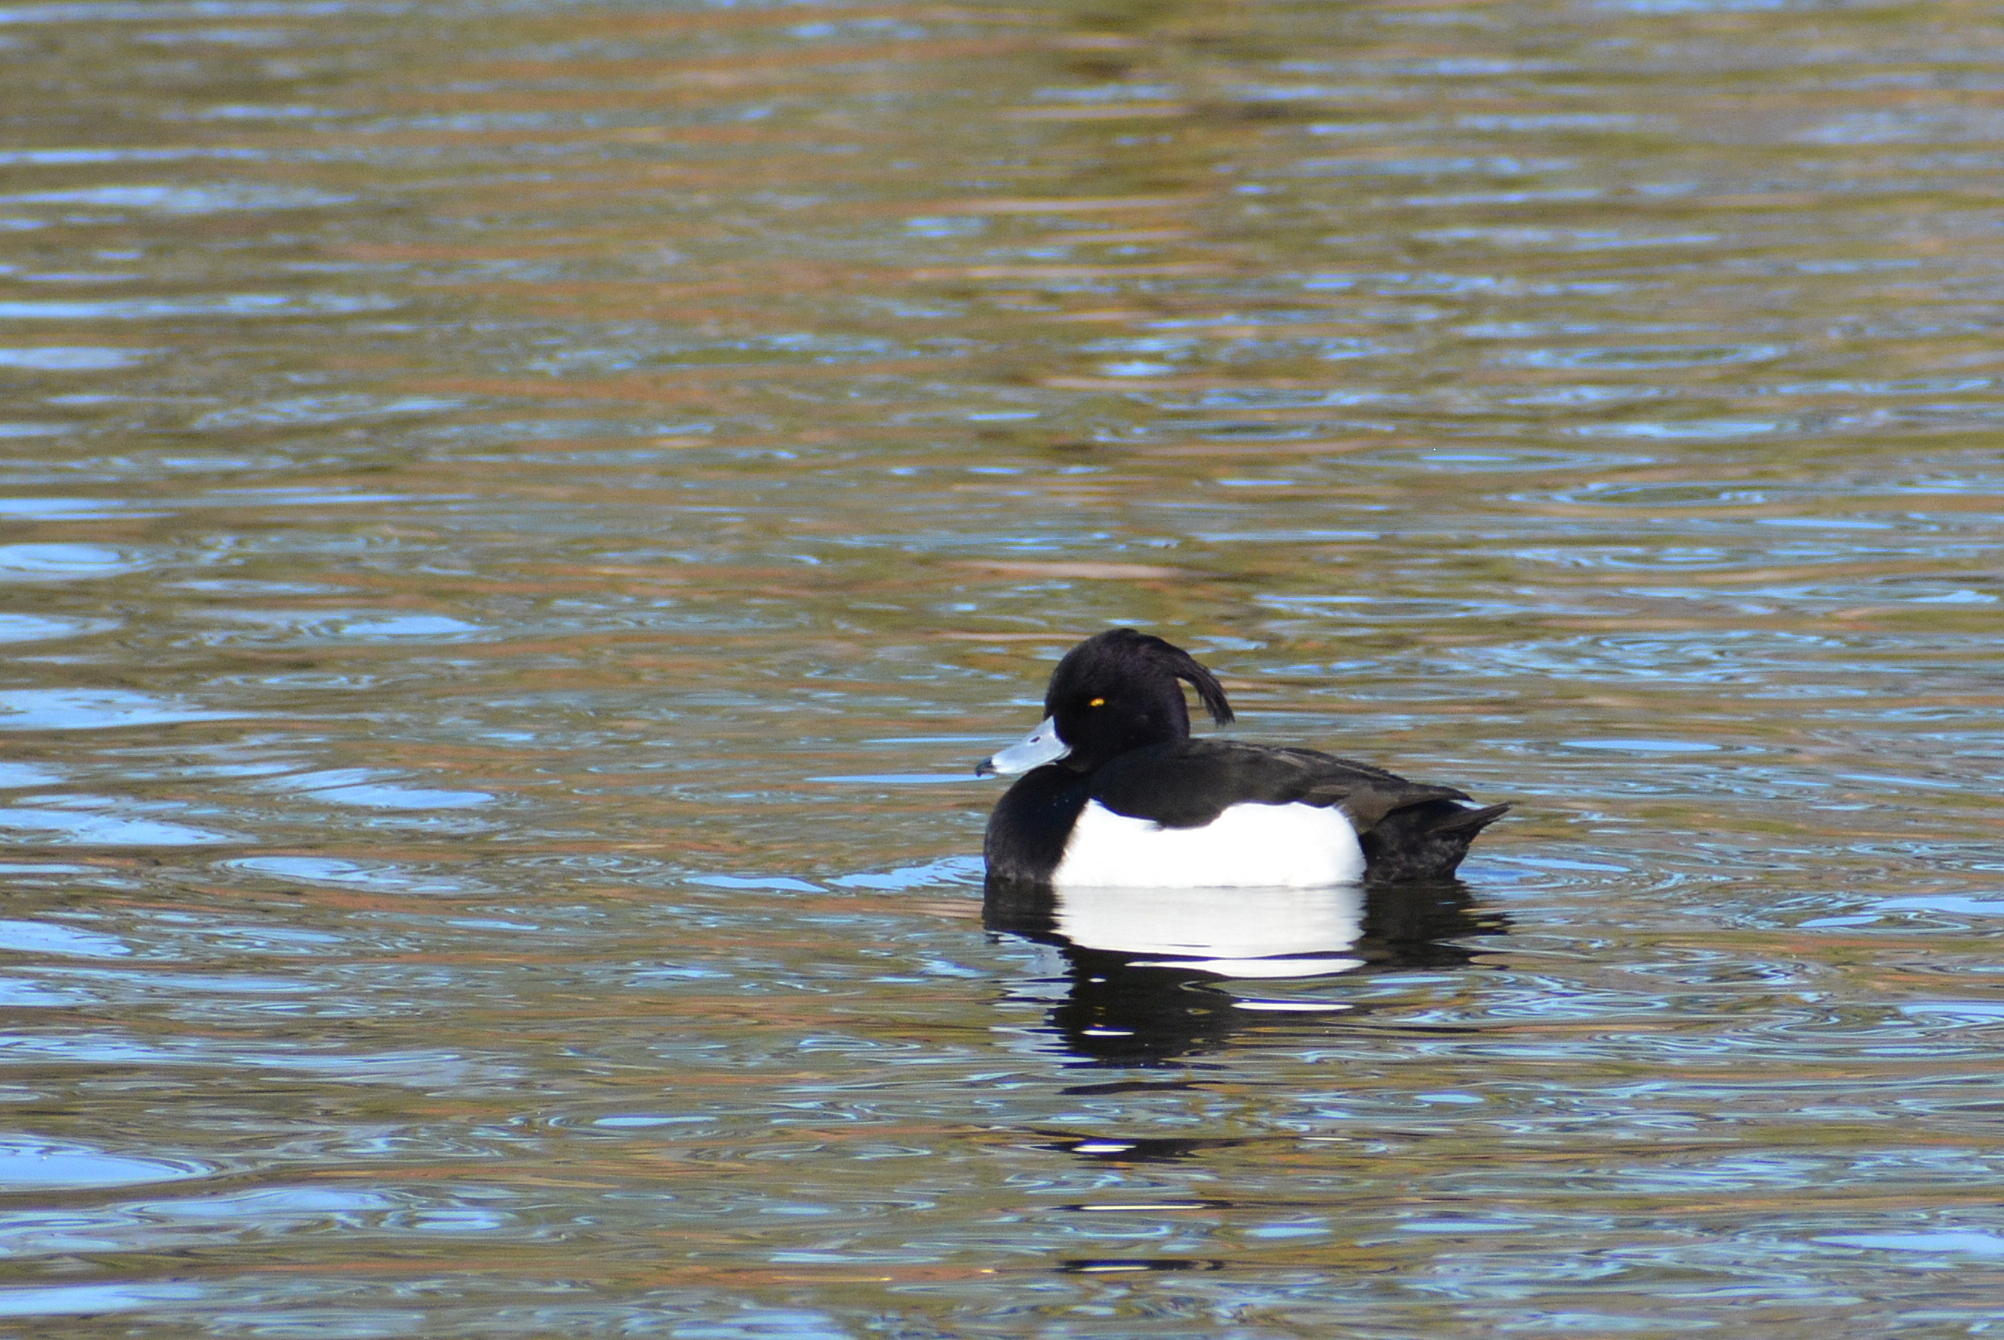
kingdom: Animalia
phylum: Chordata
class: Aves
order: Anseriformes
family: Anatidae
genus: Aythya
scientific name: Aythya fuligula
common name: Tufted duck
